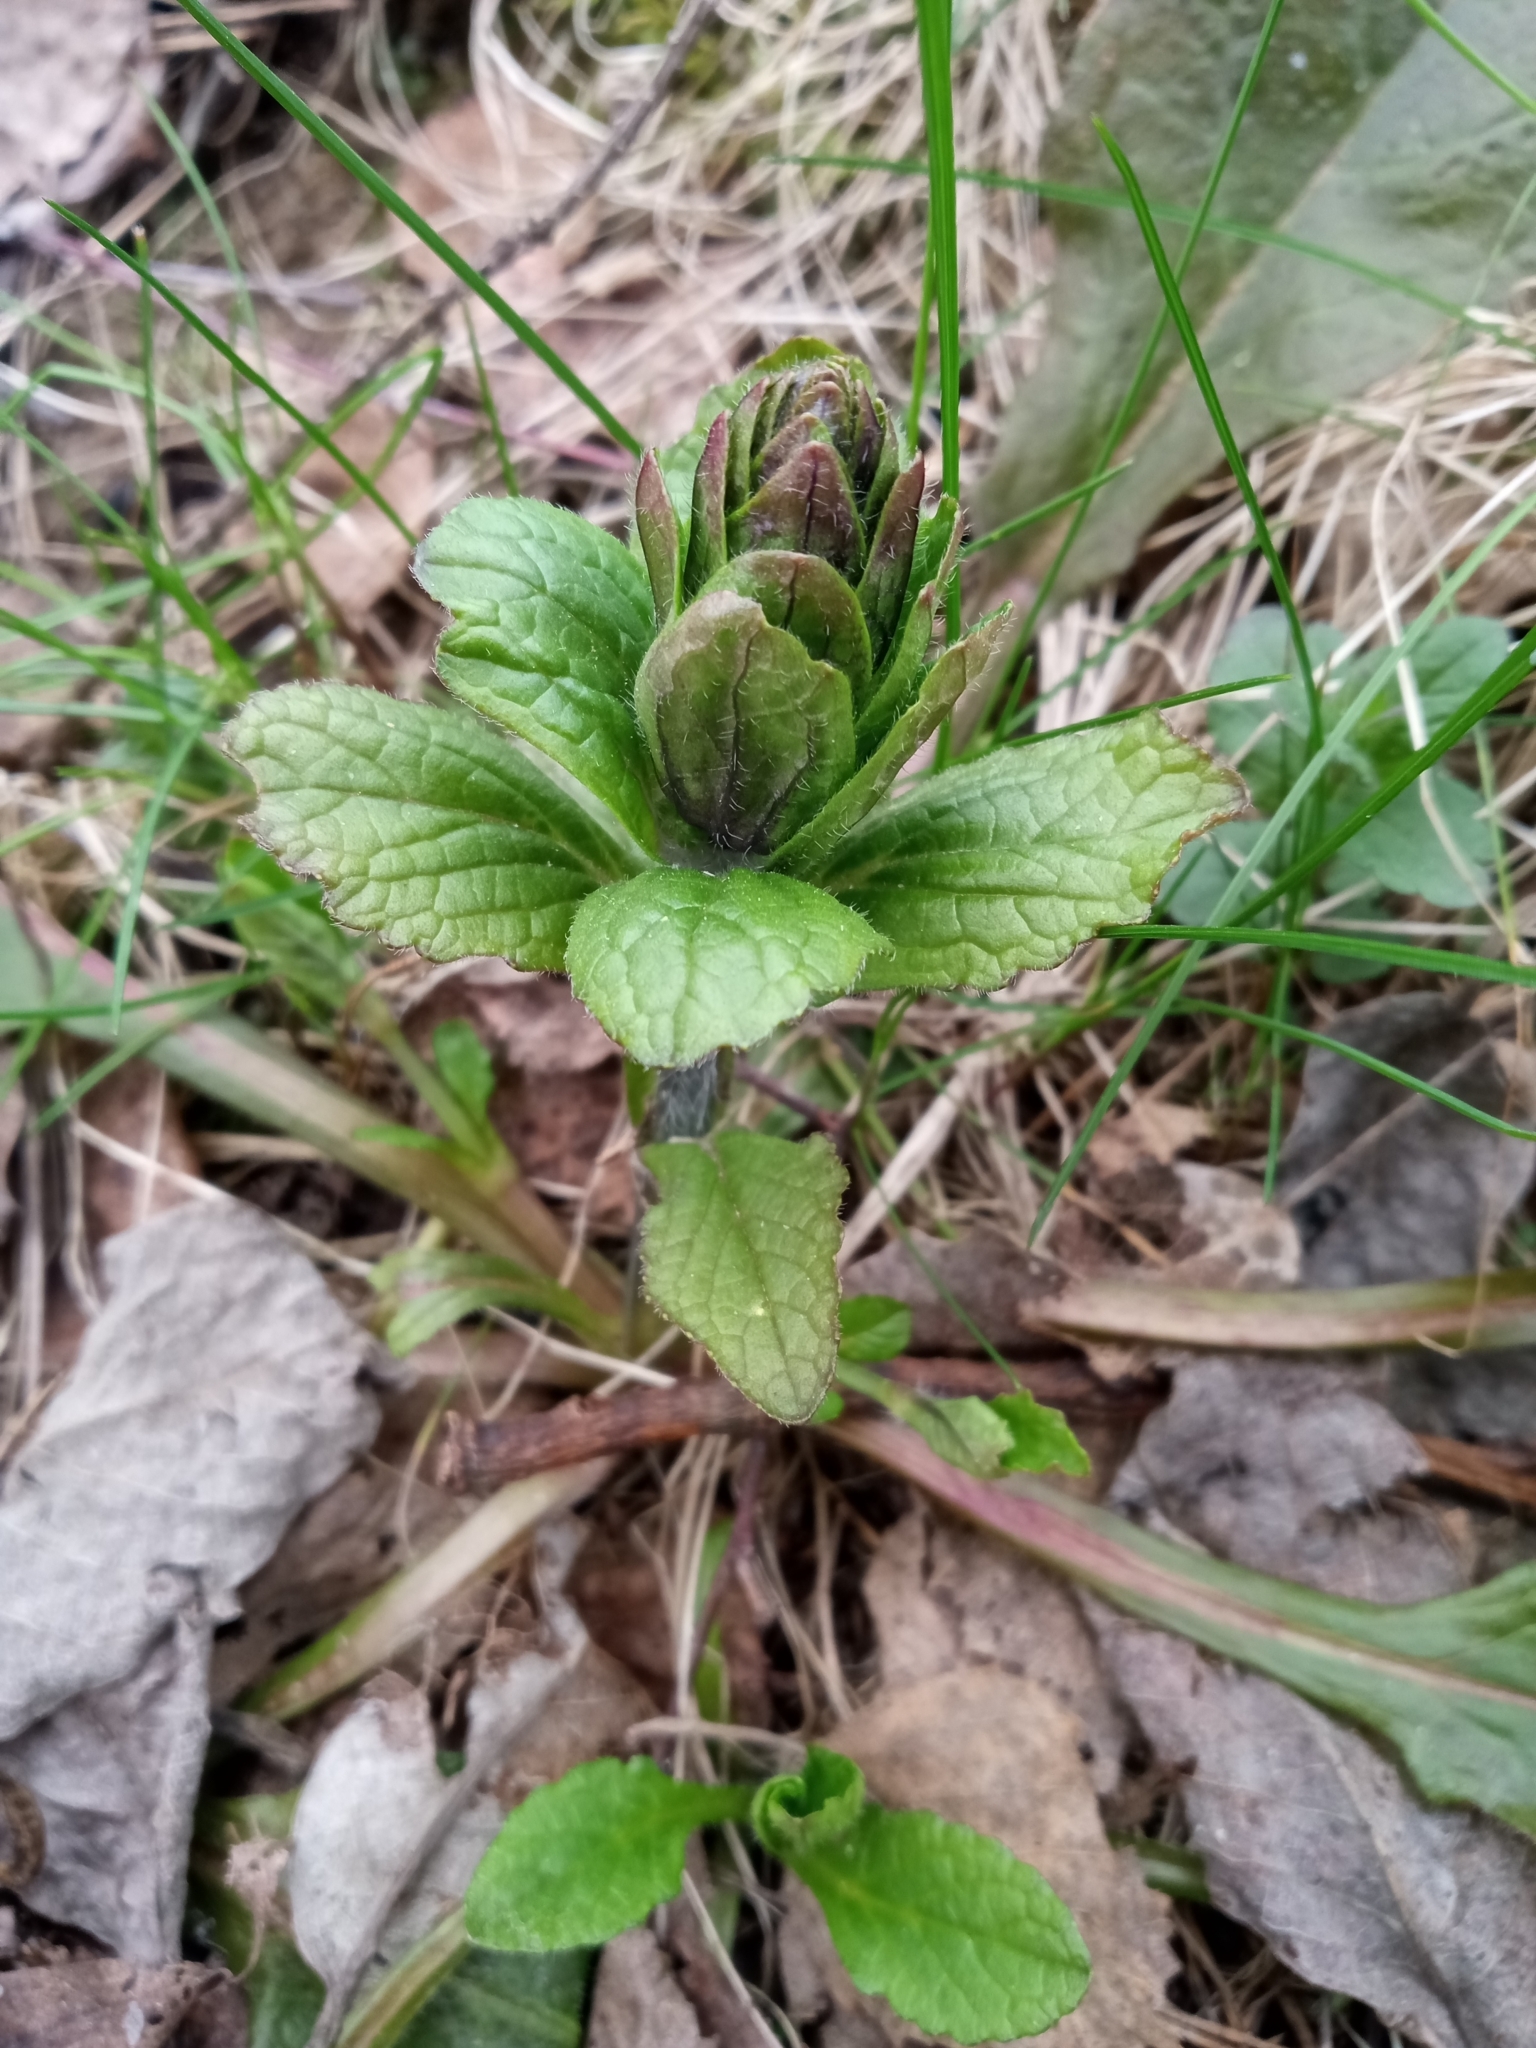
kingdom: Plantae
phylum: Tracheophyta
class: Magnoliopsida
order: Lamiales
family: Lamiaceae
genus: Ajuga
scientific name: Ajuga reptans
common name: Bugle
